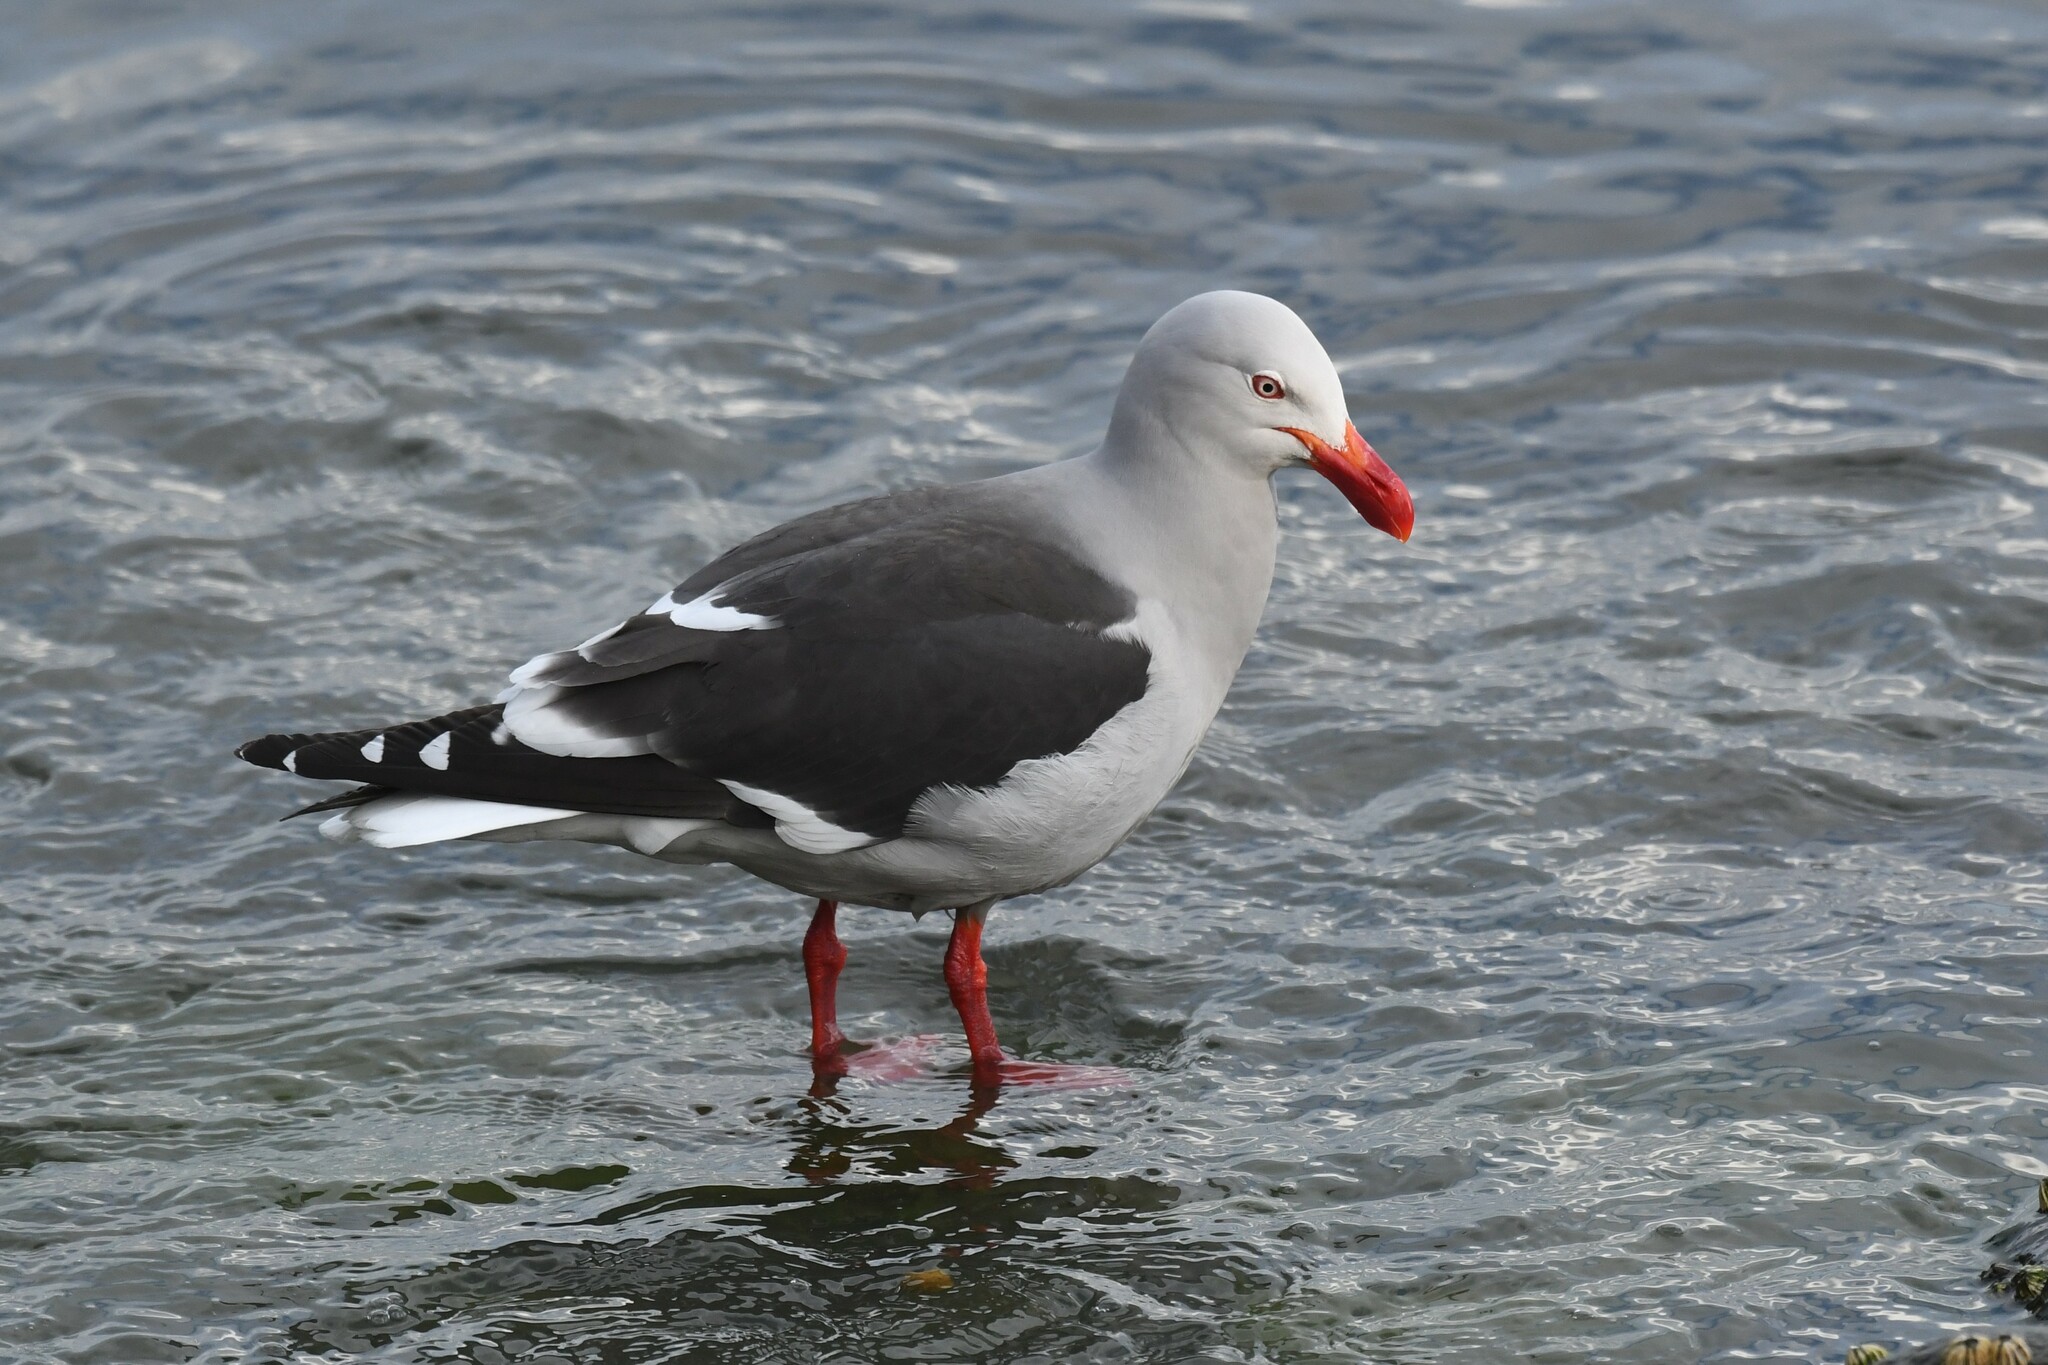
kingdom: Animalia
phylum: Chordata
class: Aves
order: Charadriiformes
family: Laridae
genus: Leucophaeus
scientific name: Leucophaeus scoresbii
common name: Dolphin gull
